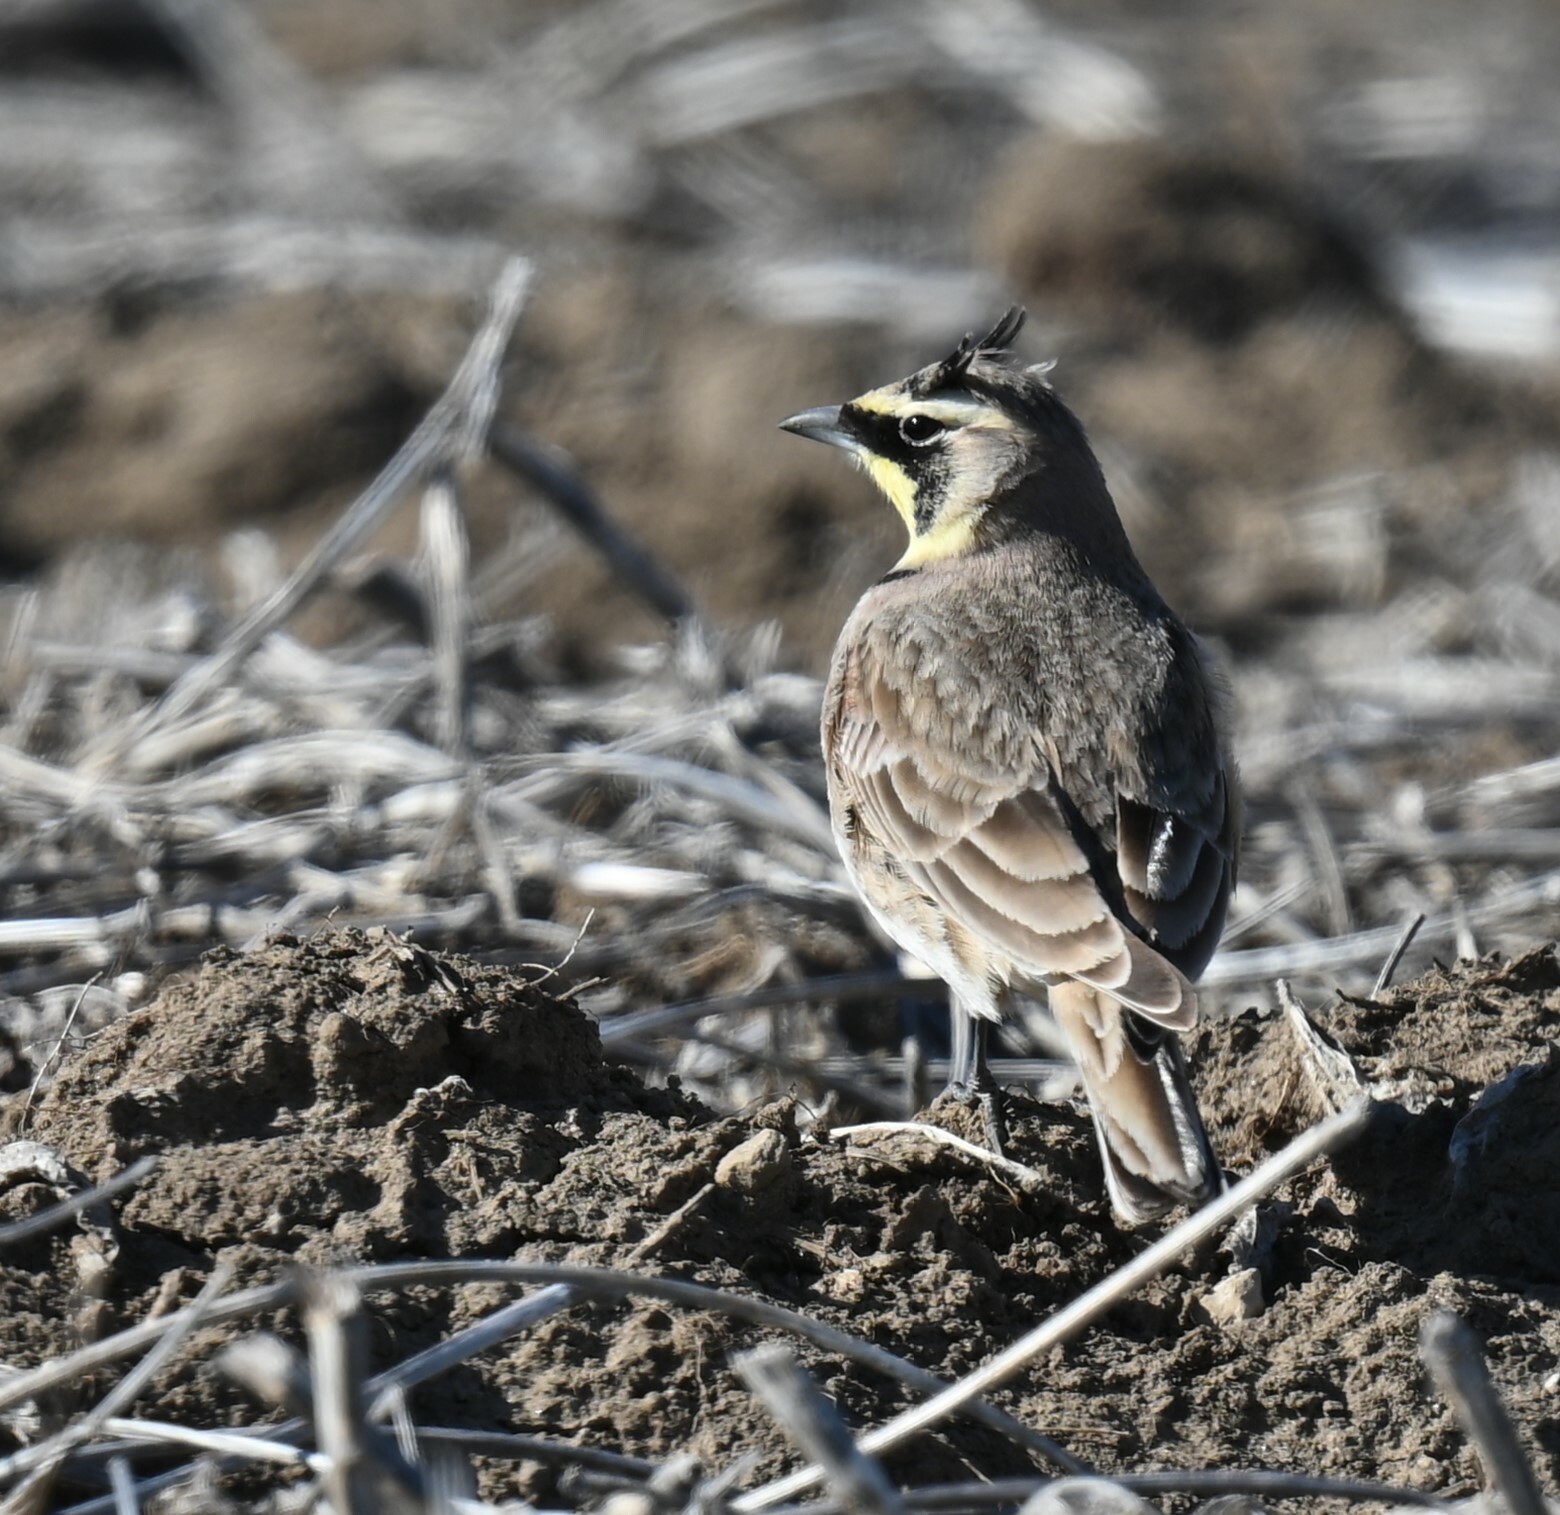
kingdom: Animalia
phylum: Chordata
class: Aves
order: Passeriformes
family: Alaudidae
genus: Eremophila
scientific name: Eremophila alpestris
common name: Horned lark
